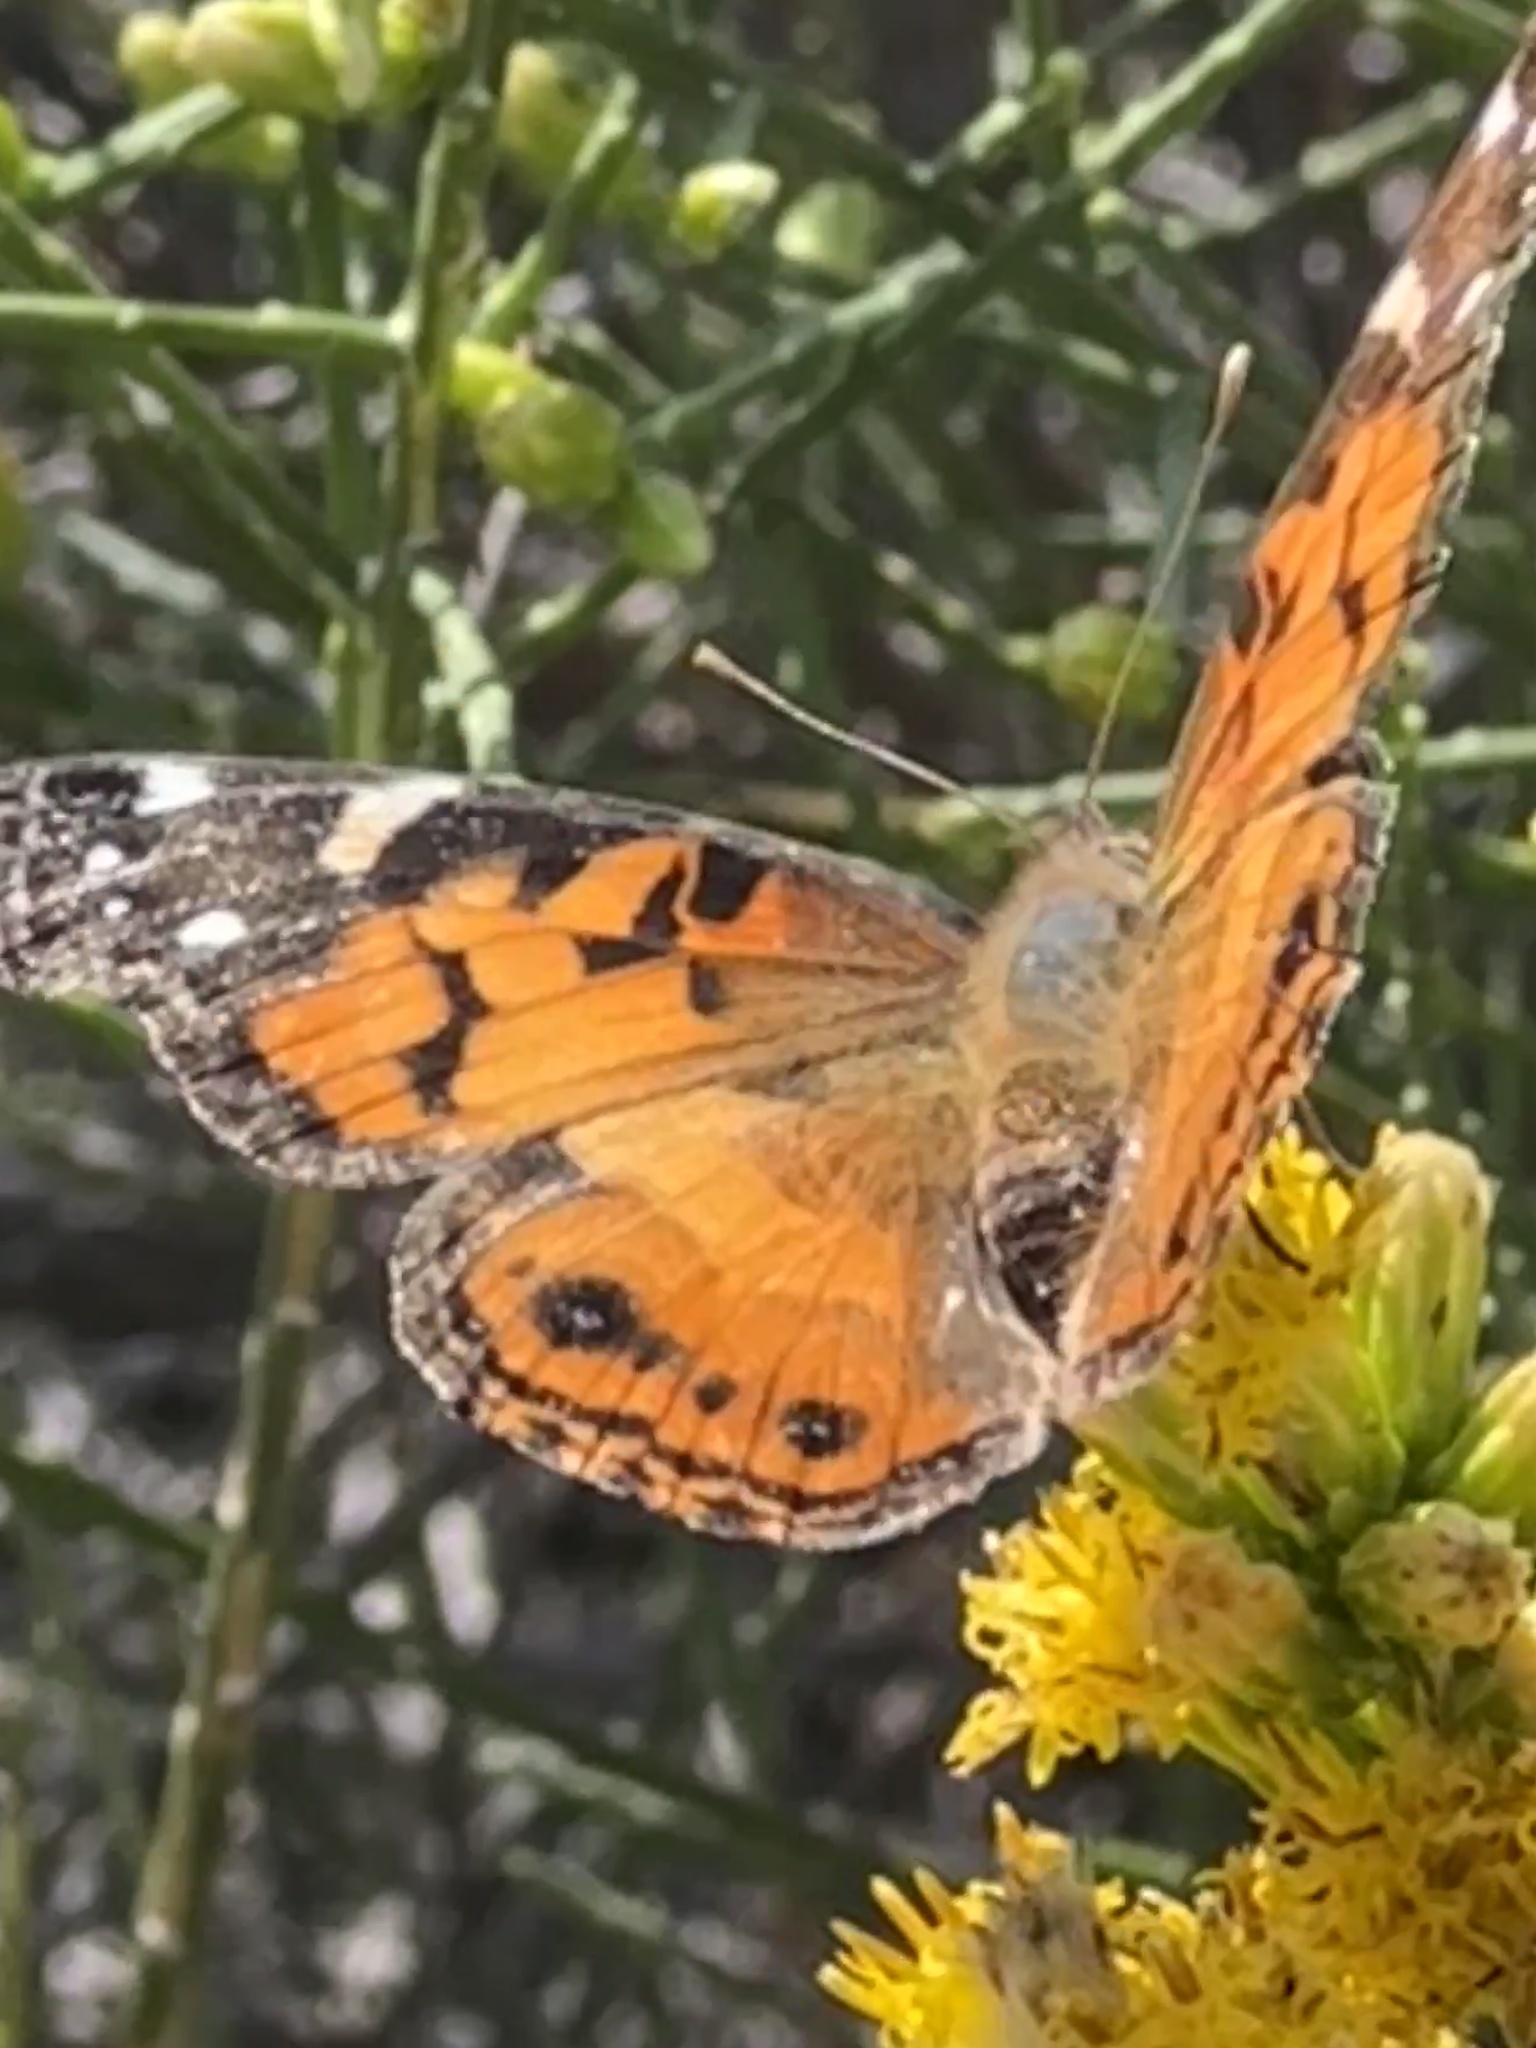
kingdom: Animalia
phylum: Arthropoda
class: Insecta
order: Lepidoptera
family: Nymphalidae
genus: Vanessa
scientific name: Vanessa virginiensis
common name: American lady
